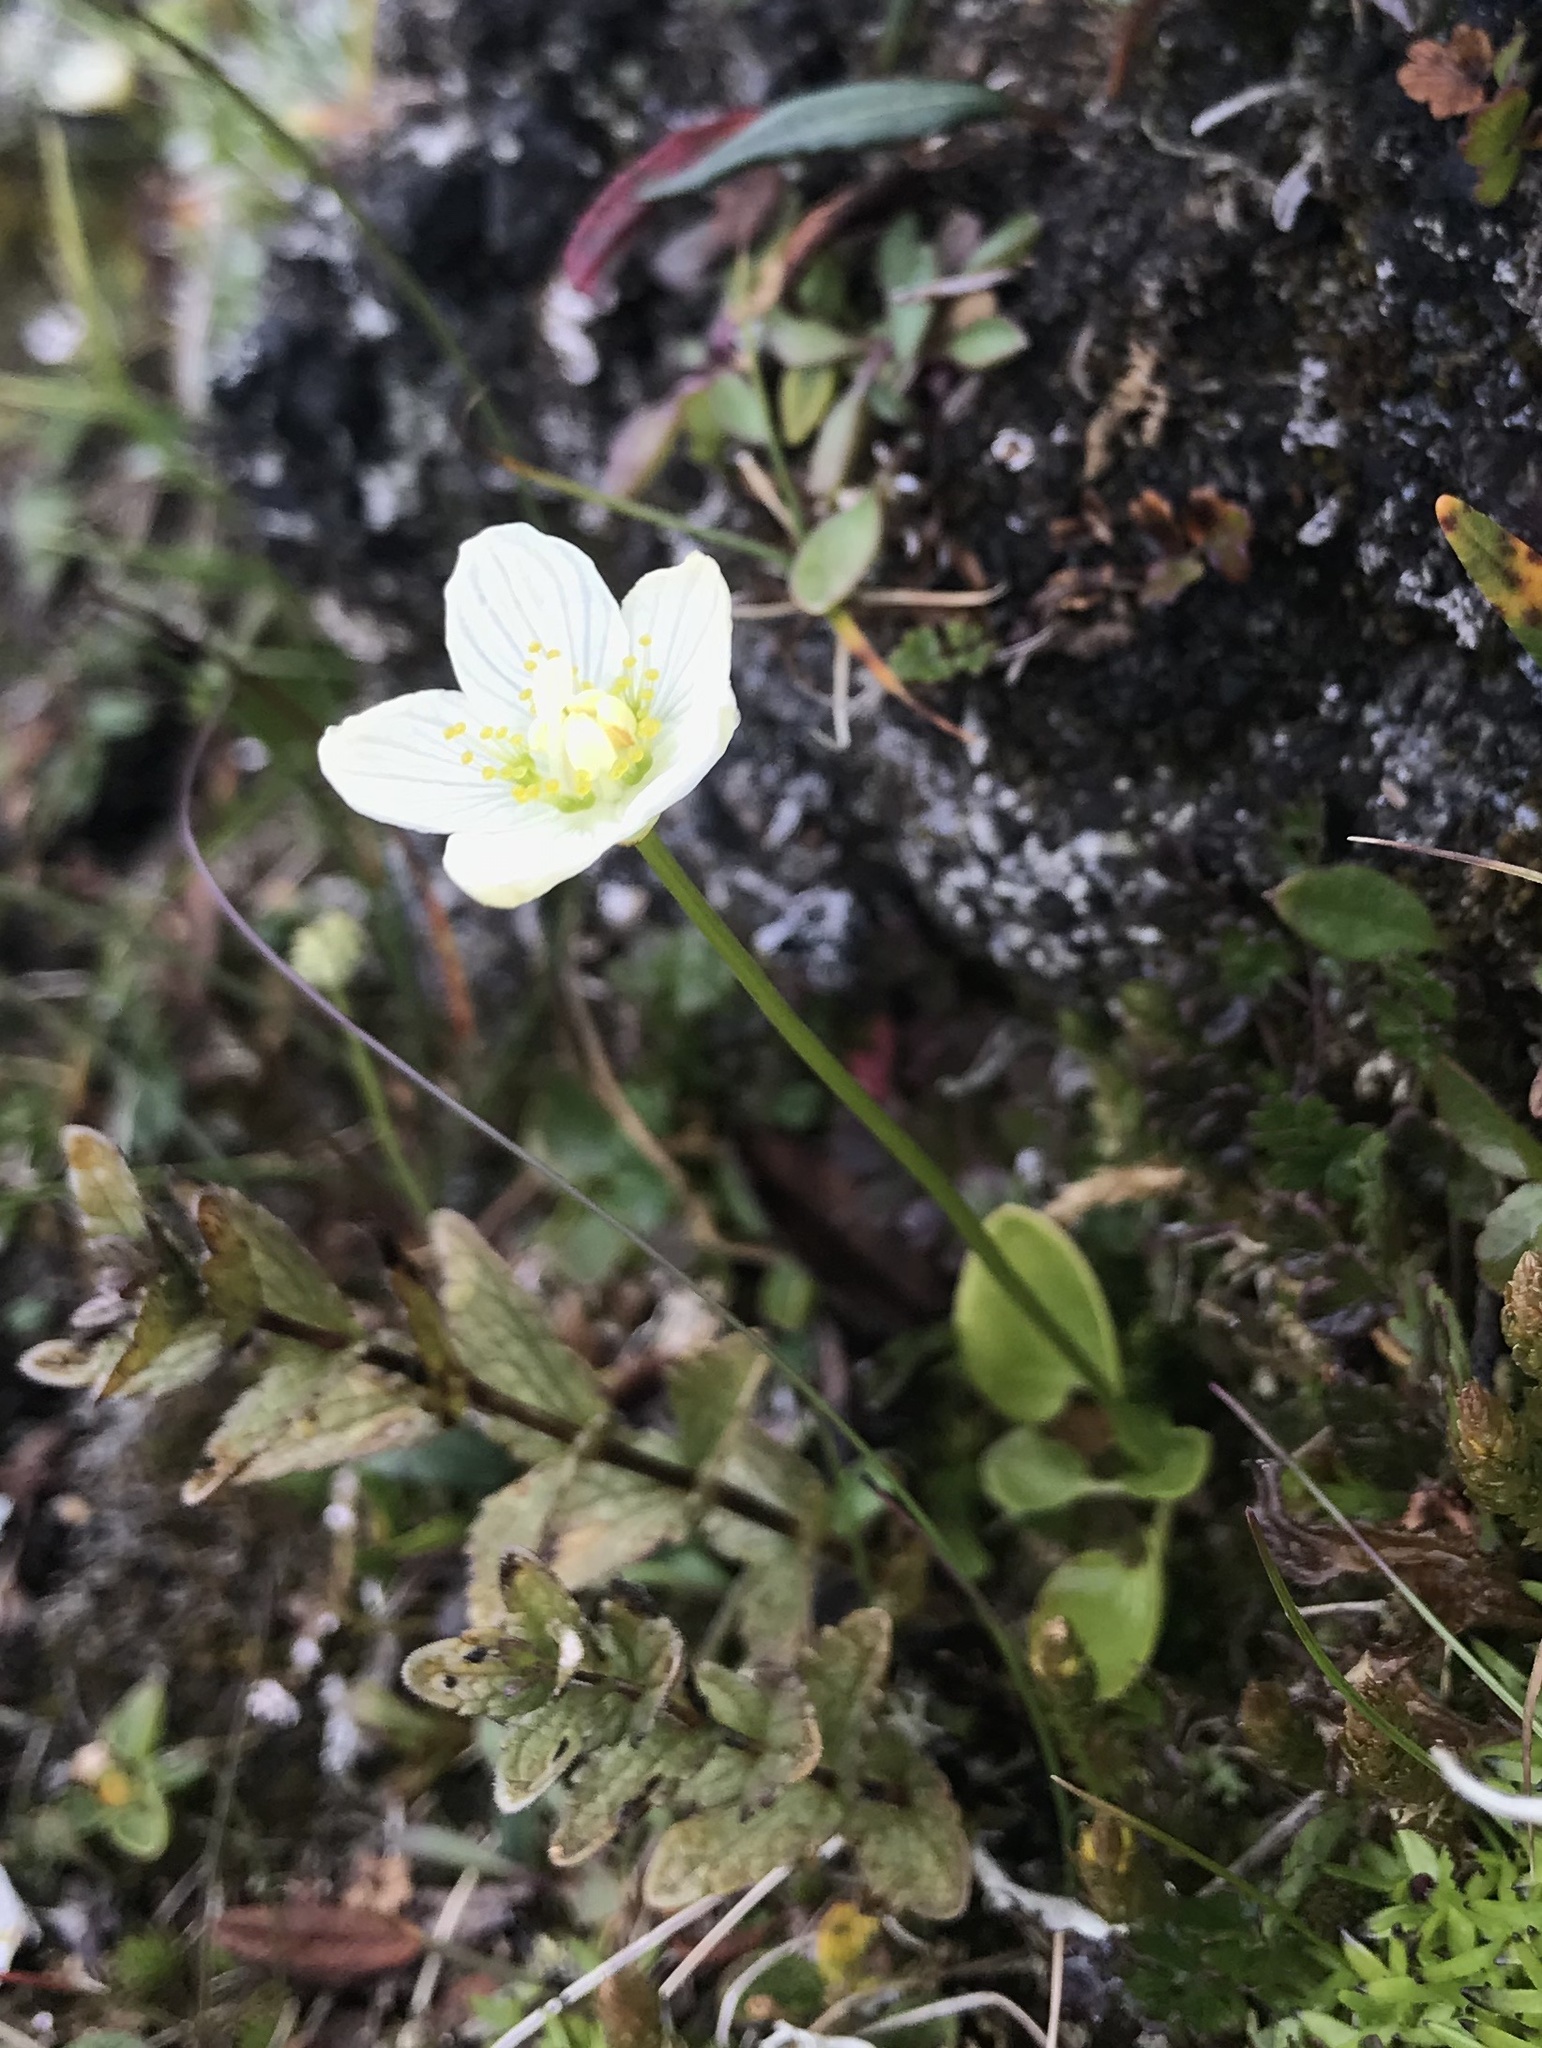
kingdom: Plantae
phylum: Tracheophyta
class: Magnoliopsida
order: Celastrales
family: Parnassiaceae
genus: Parnassia
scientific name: Parnassia palustris
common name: Grass-of-parnassus
